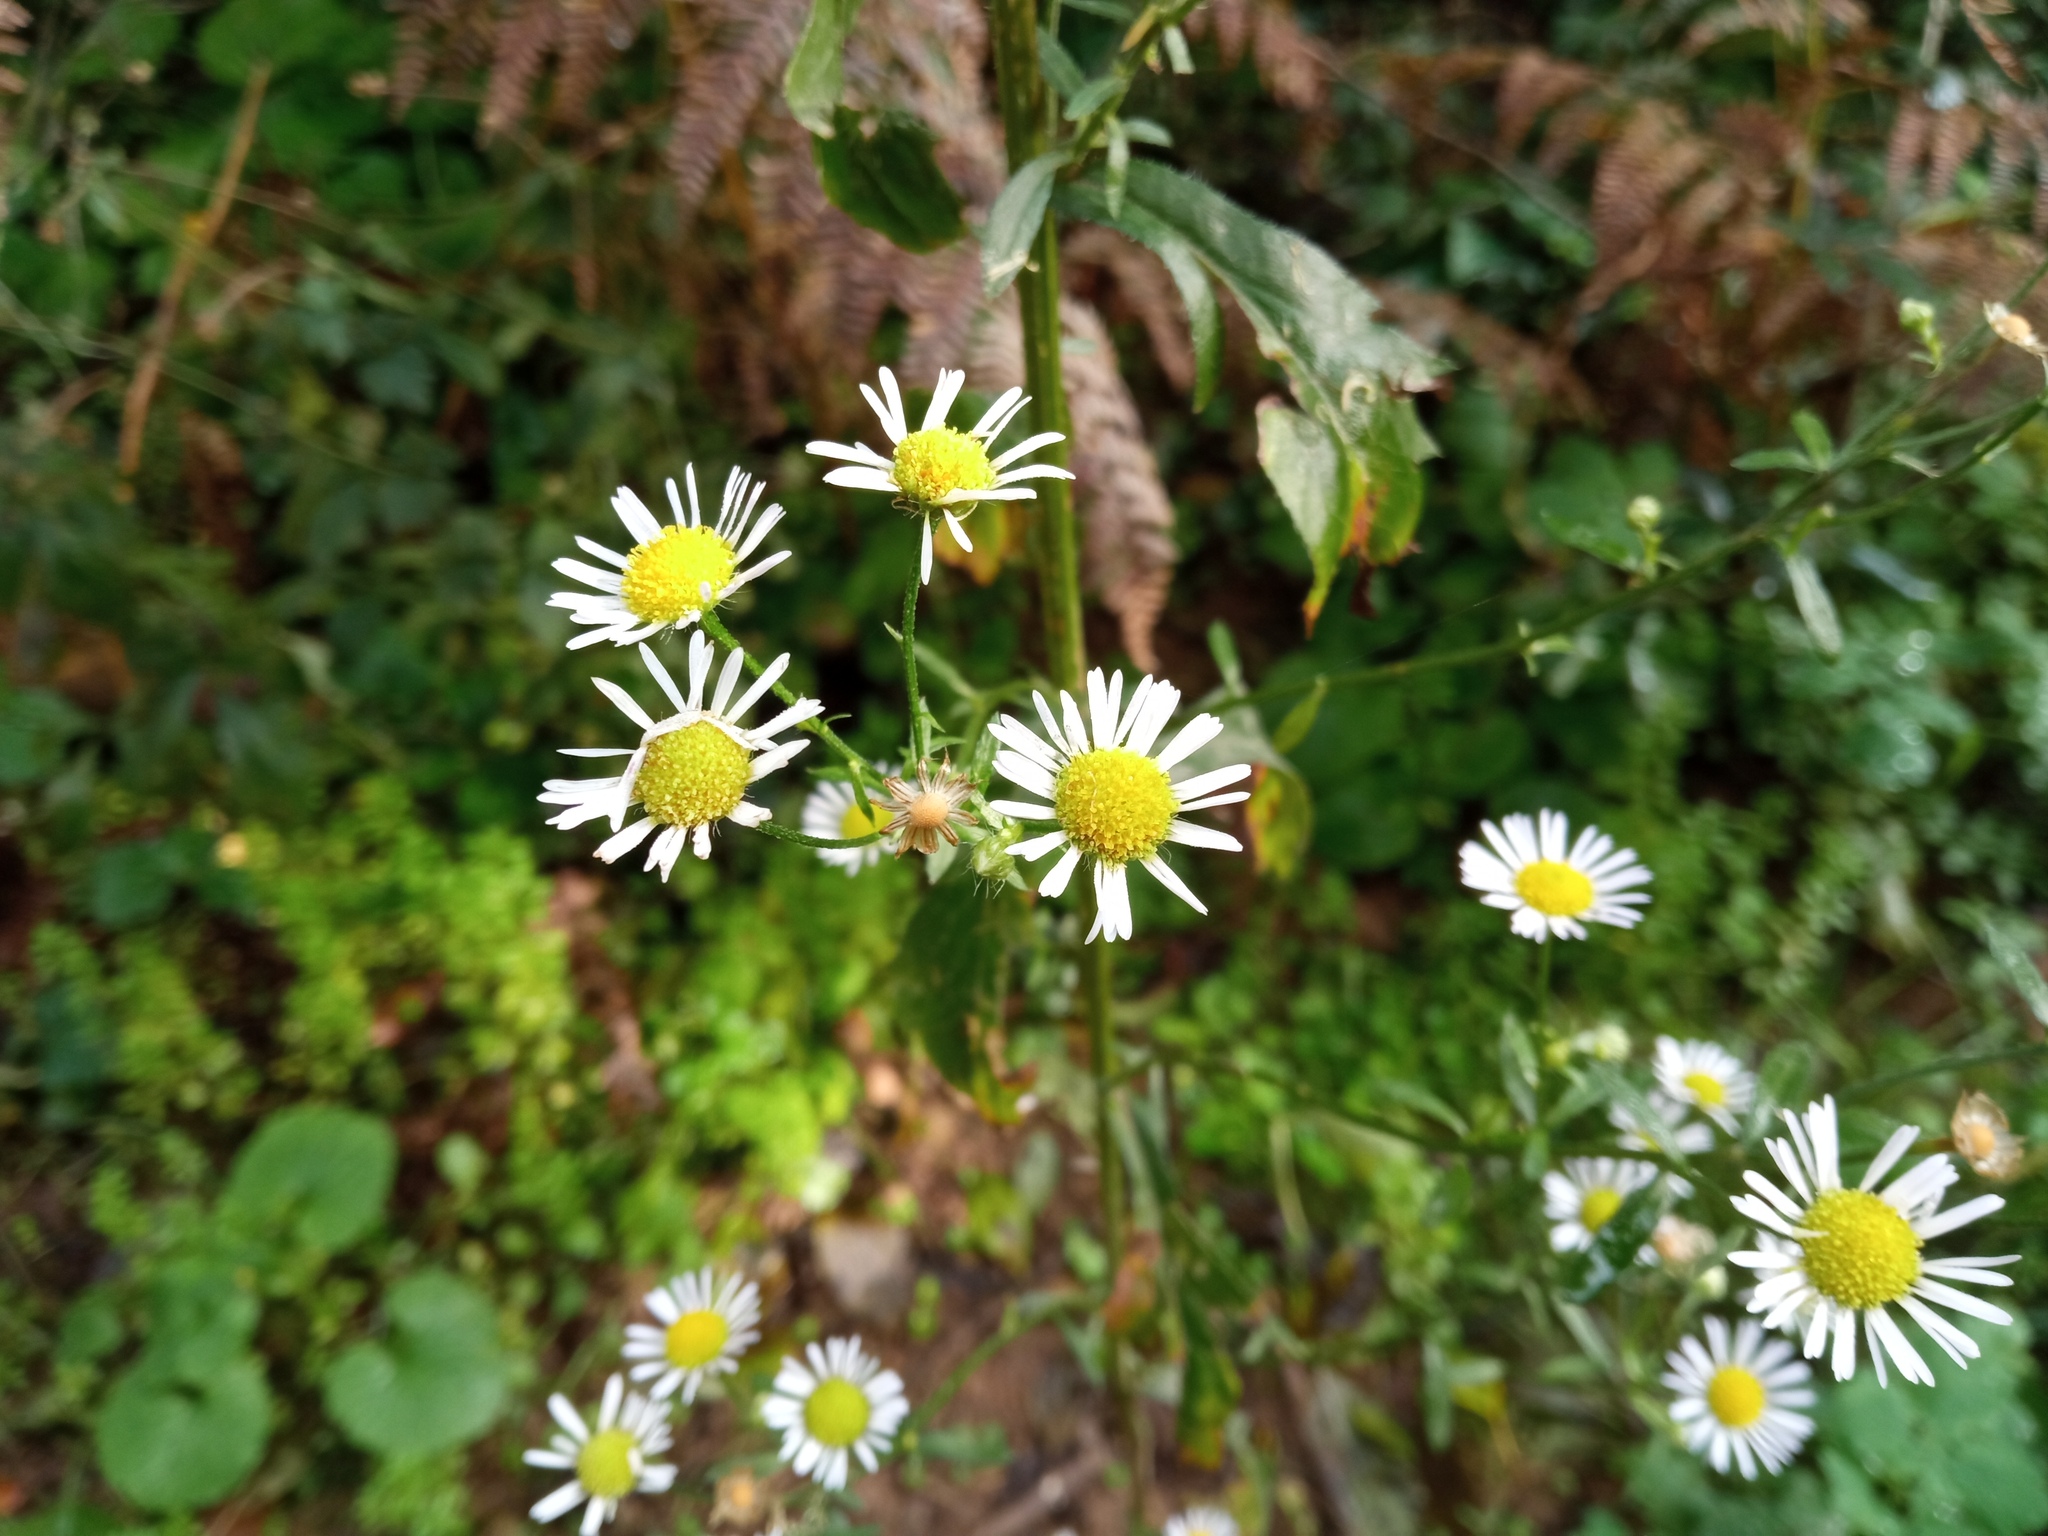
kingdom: Plantae
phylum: Tracheophyta
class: Magnoliopsida
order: Asterales
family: Asteraceae
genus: Erigeron
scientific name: Erigeron annuus
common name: Tall fleabane
